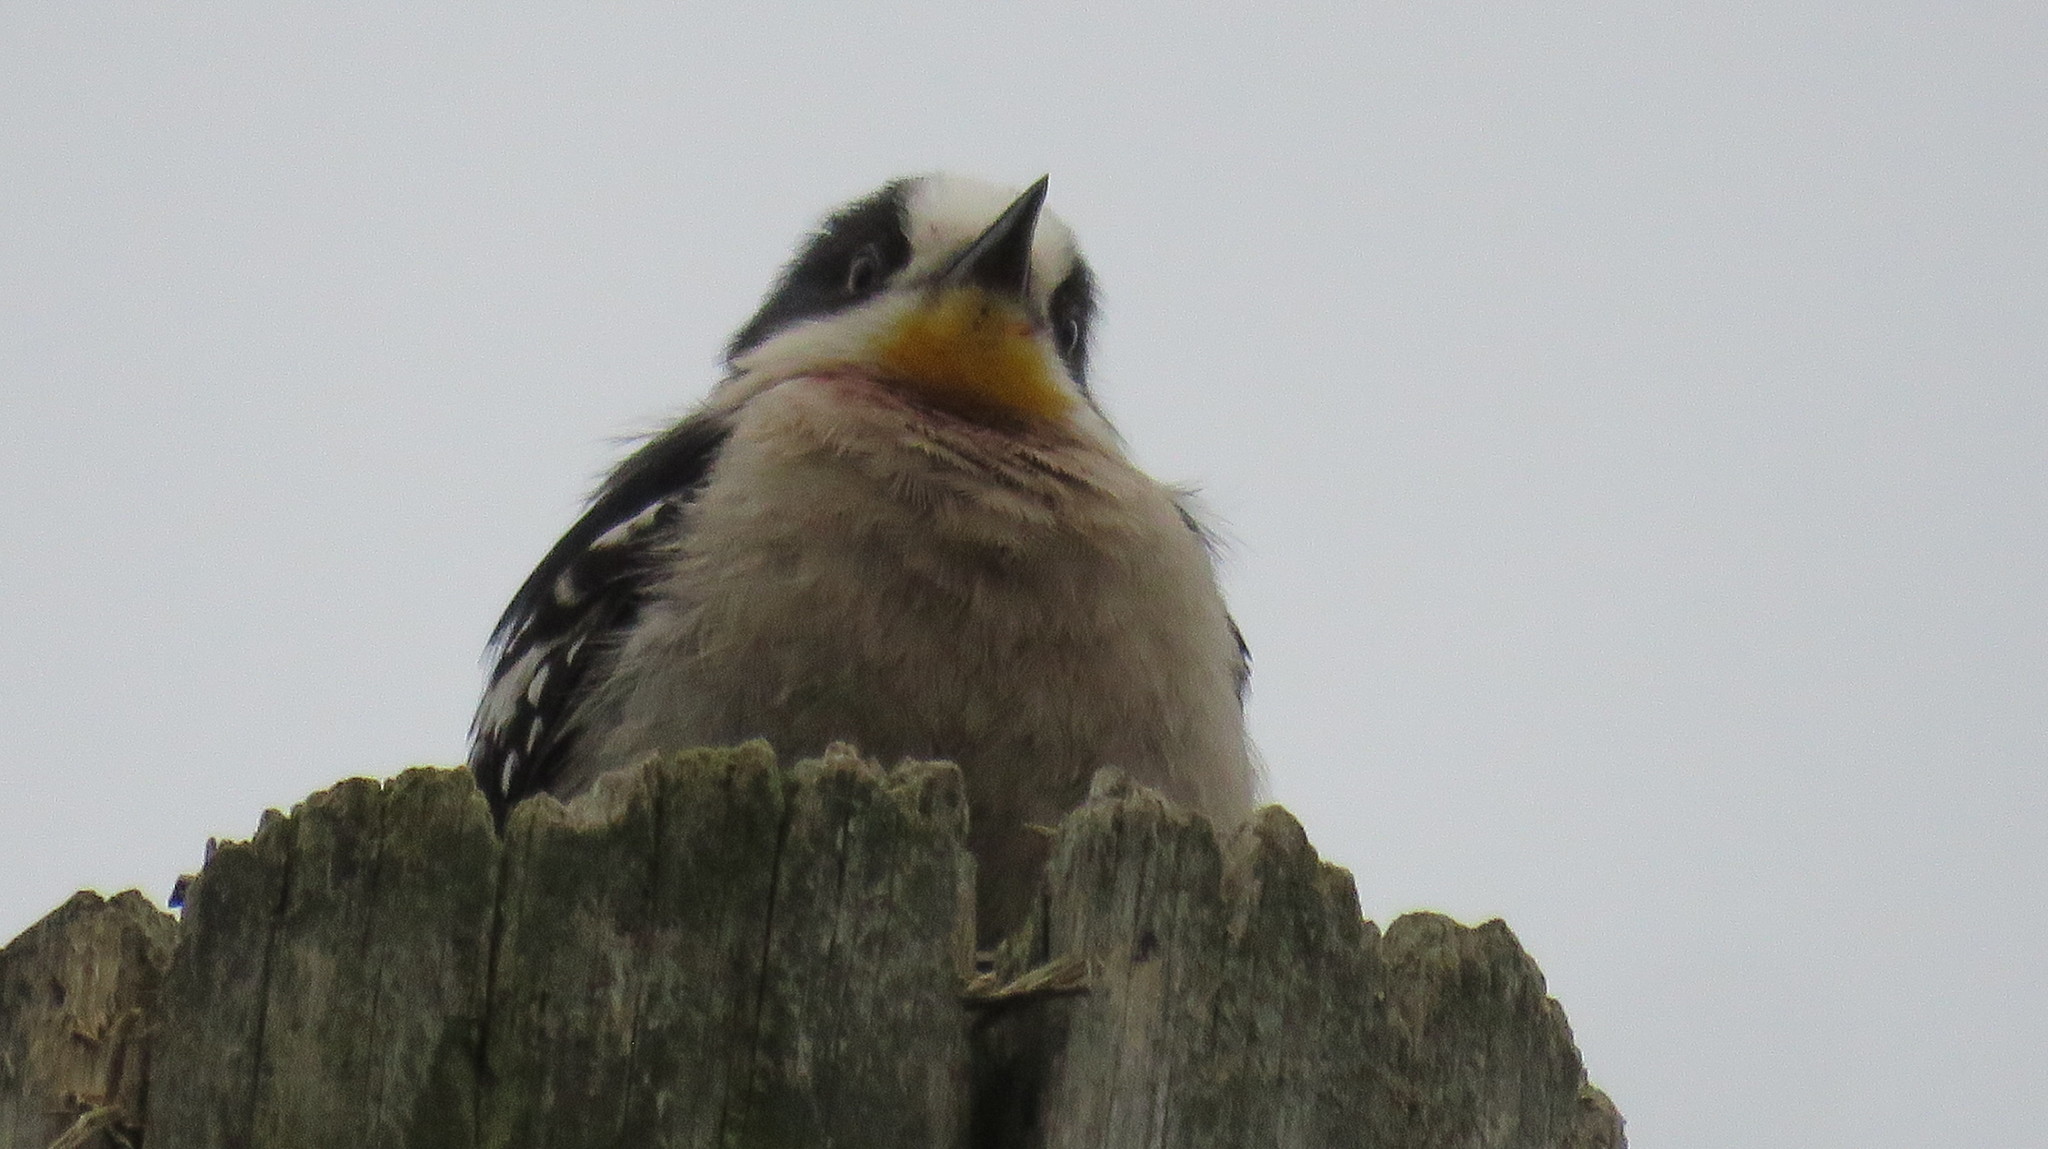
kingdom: Animalia
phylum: Chordata
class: Aves
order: Piciformes
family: Picidae
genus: Melanerpes
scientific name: Melanerpes cactorum
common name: White-fronted woodpecker
